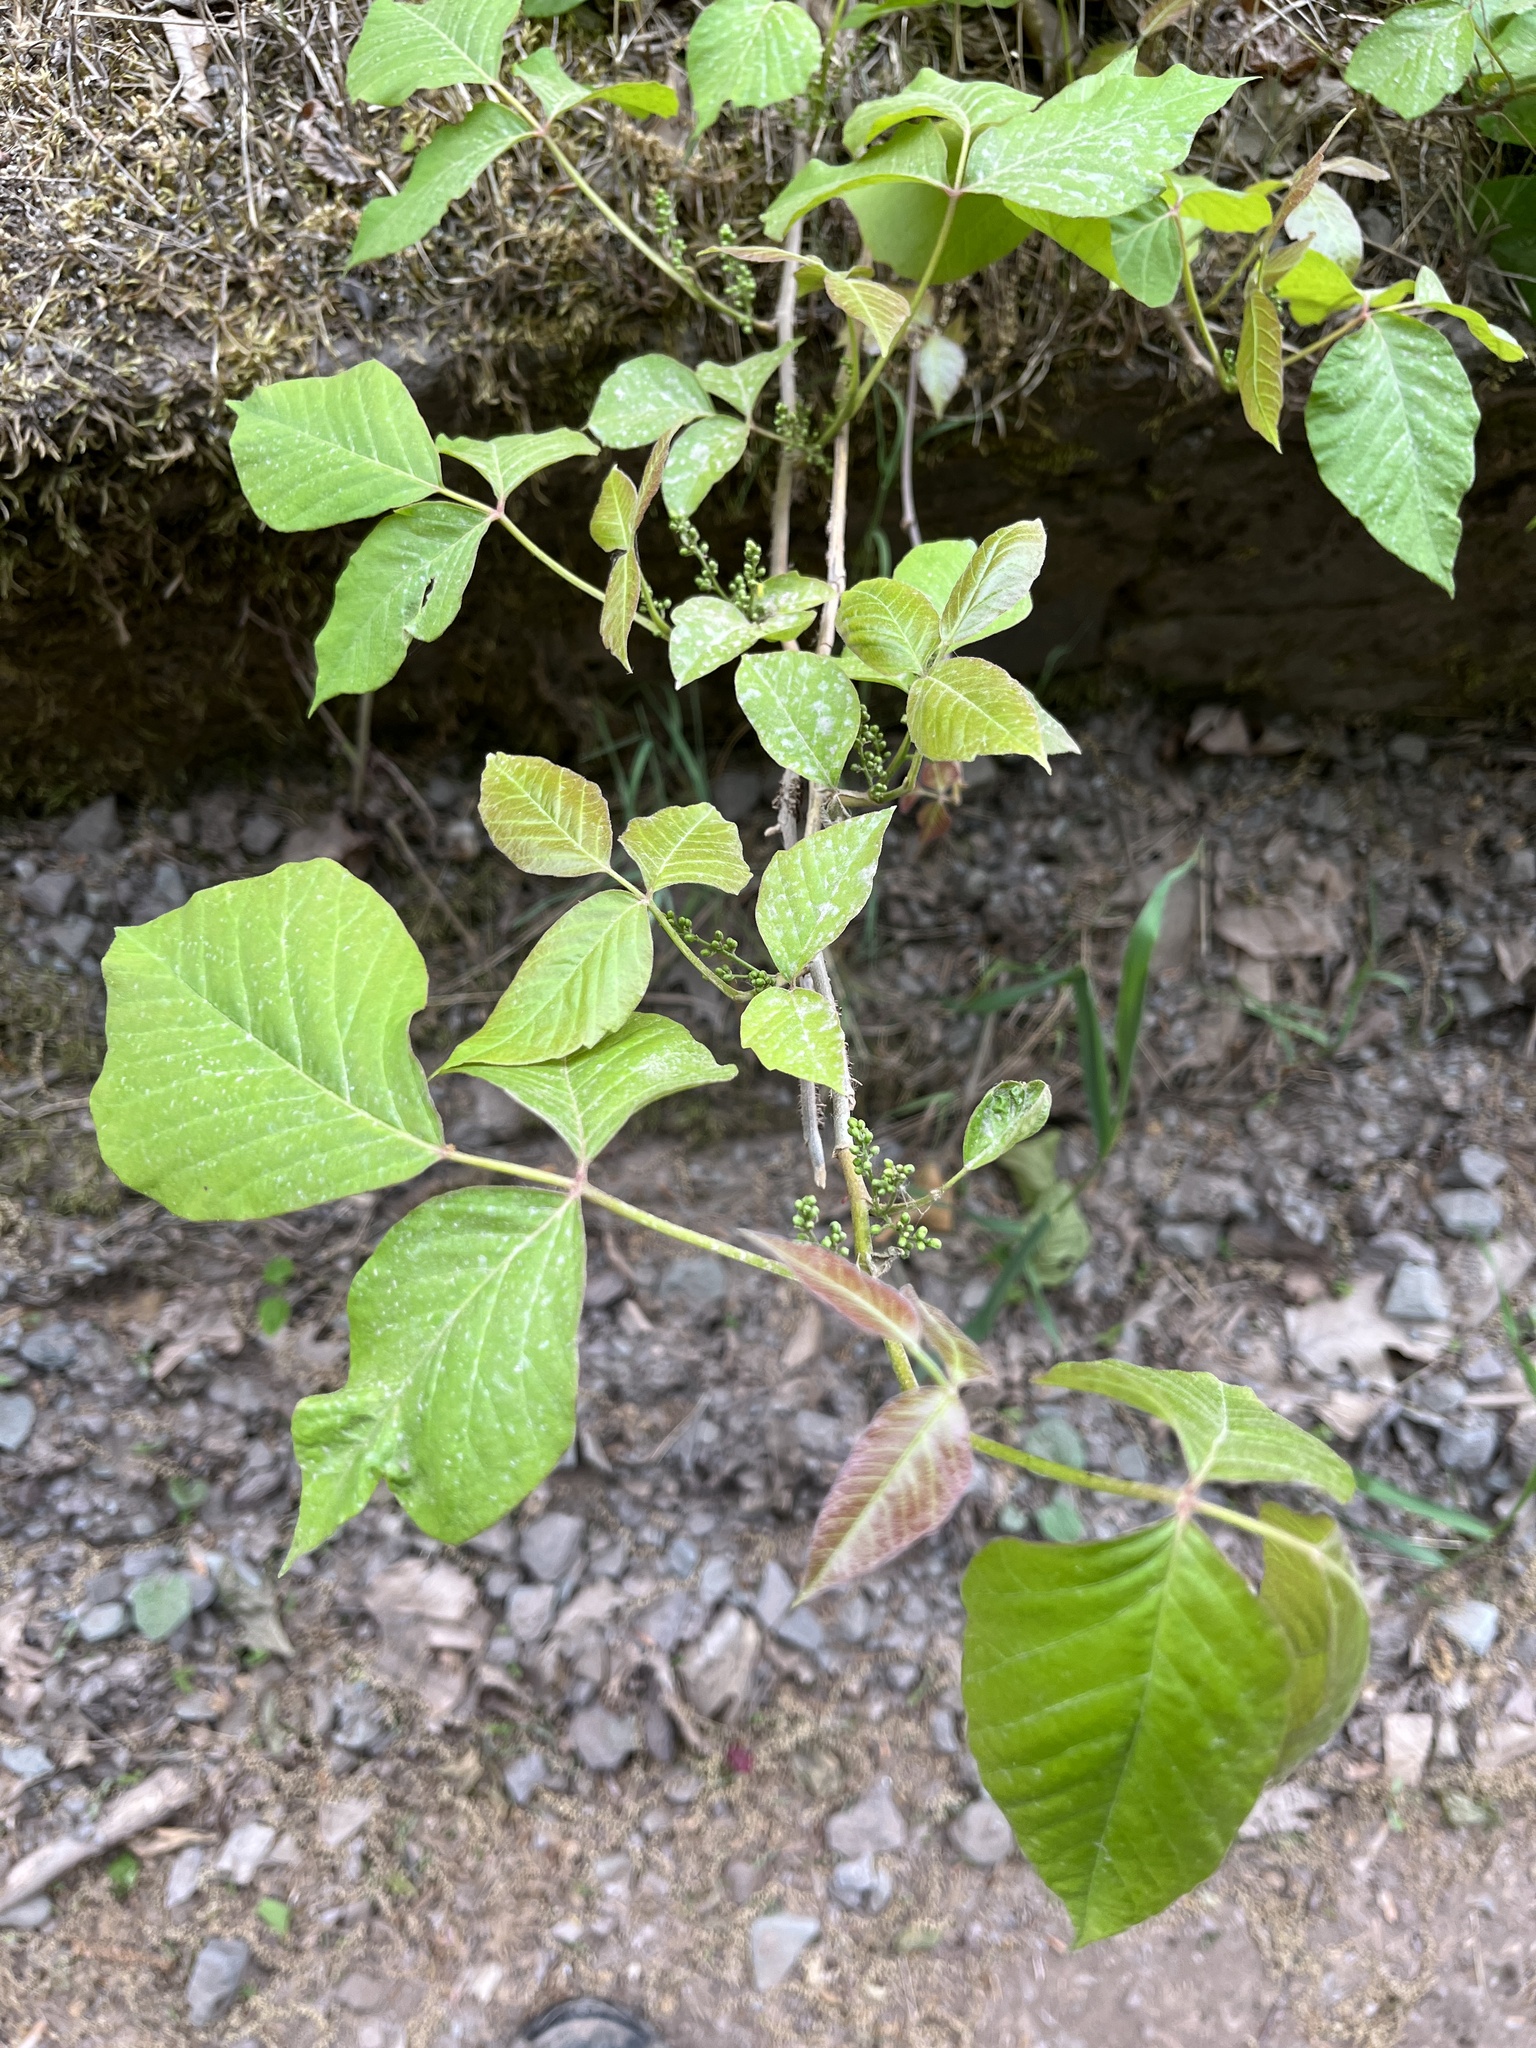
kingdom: Plantae
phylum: Tracheophyta
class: Magnoliopsida
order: Sapindales
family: Anacardiaceae
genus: Toxicodendron
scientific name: Toxicodendron radicans
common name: Poison ivy
